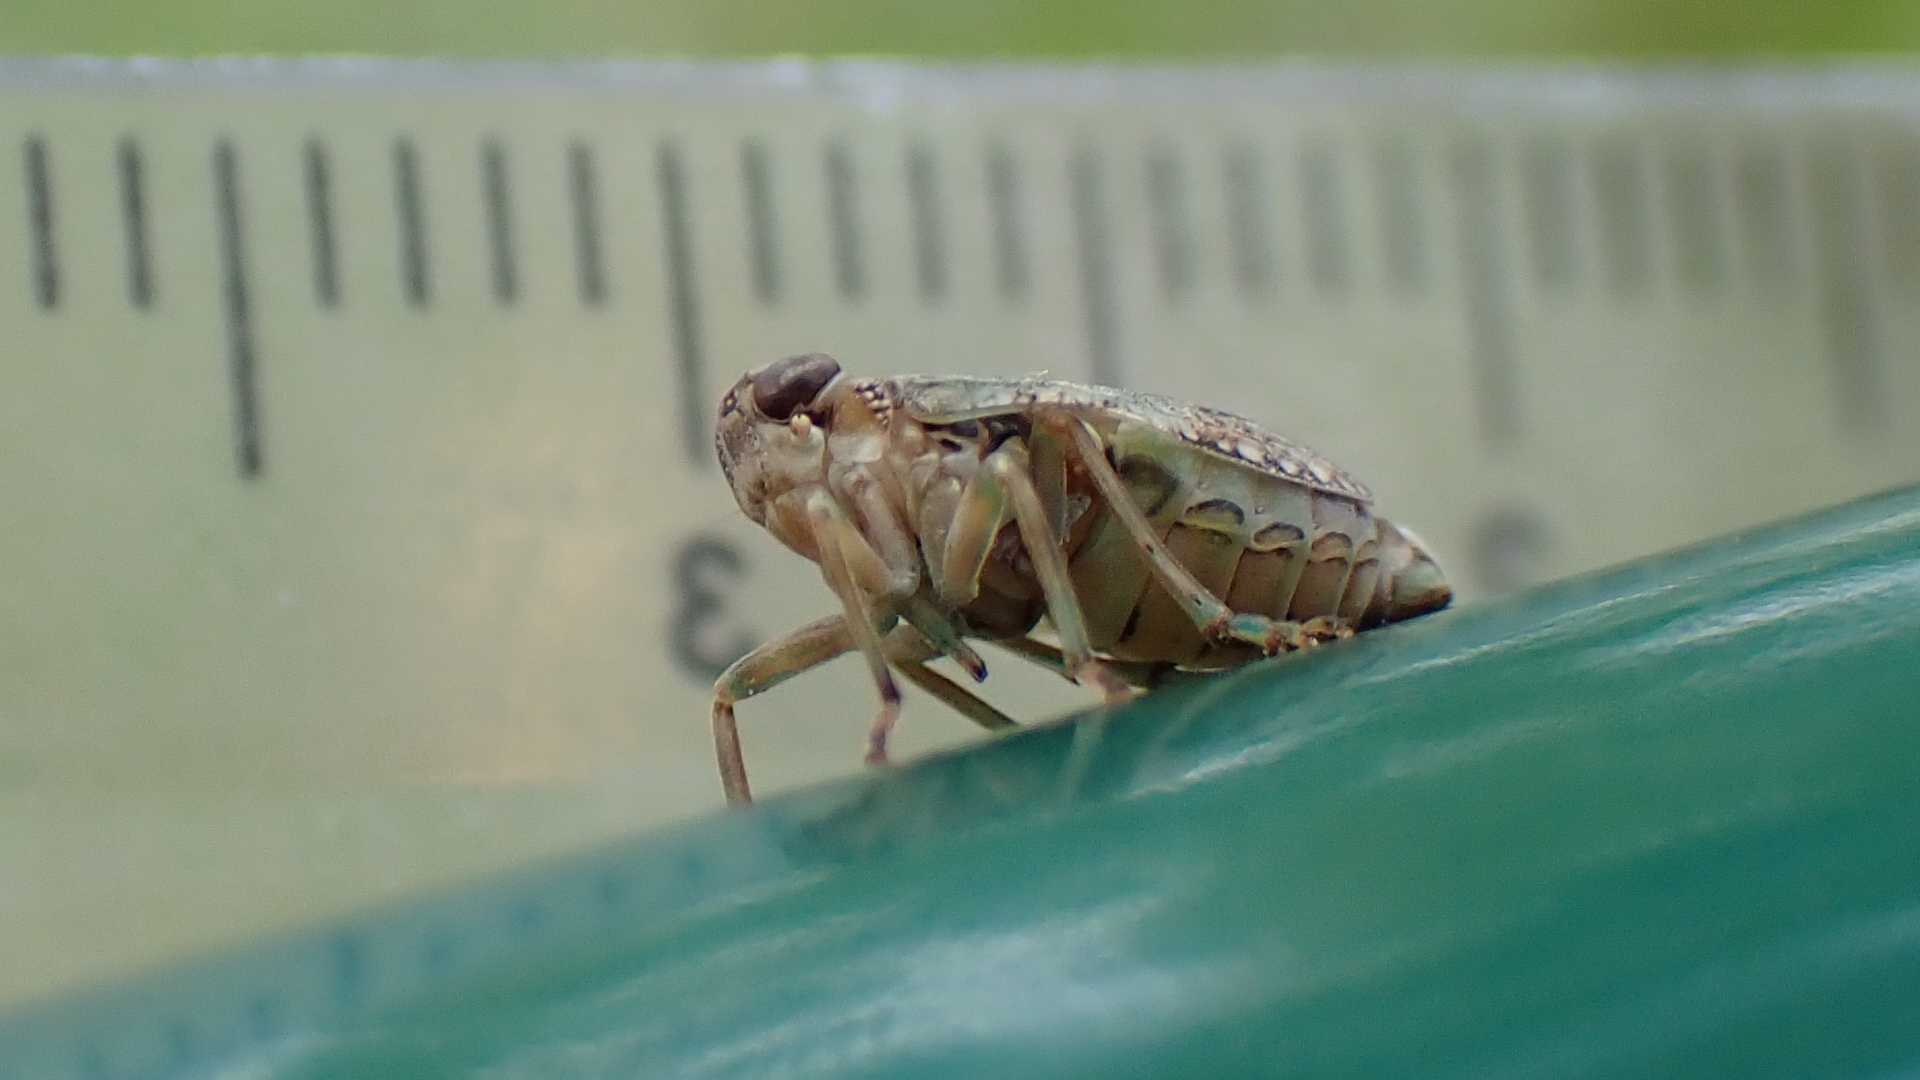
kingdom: Animalia
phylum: Arthropoda
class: Insecta
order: Hemiptera
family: Issidae
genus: Issus
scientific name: Issus coleoptratus
